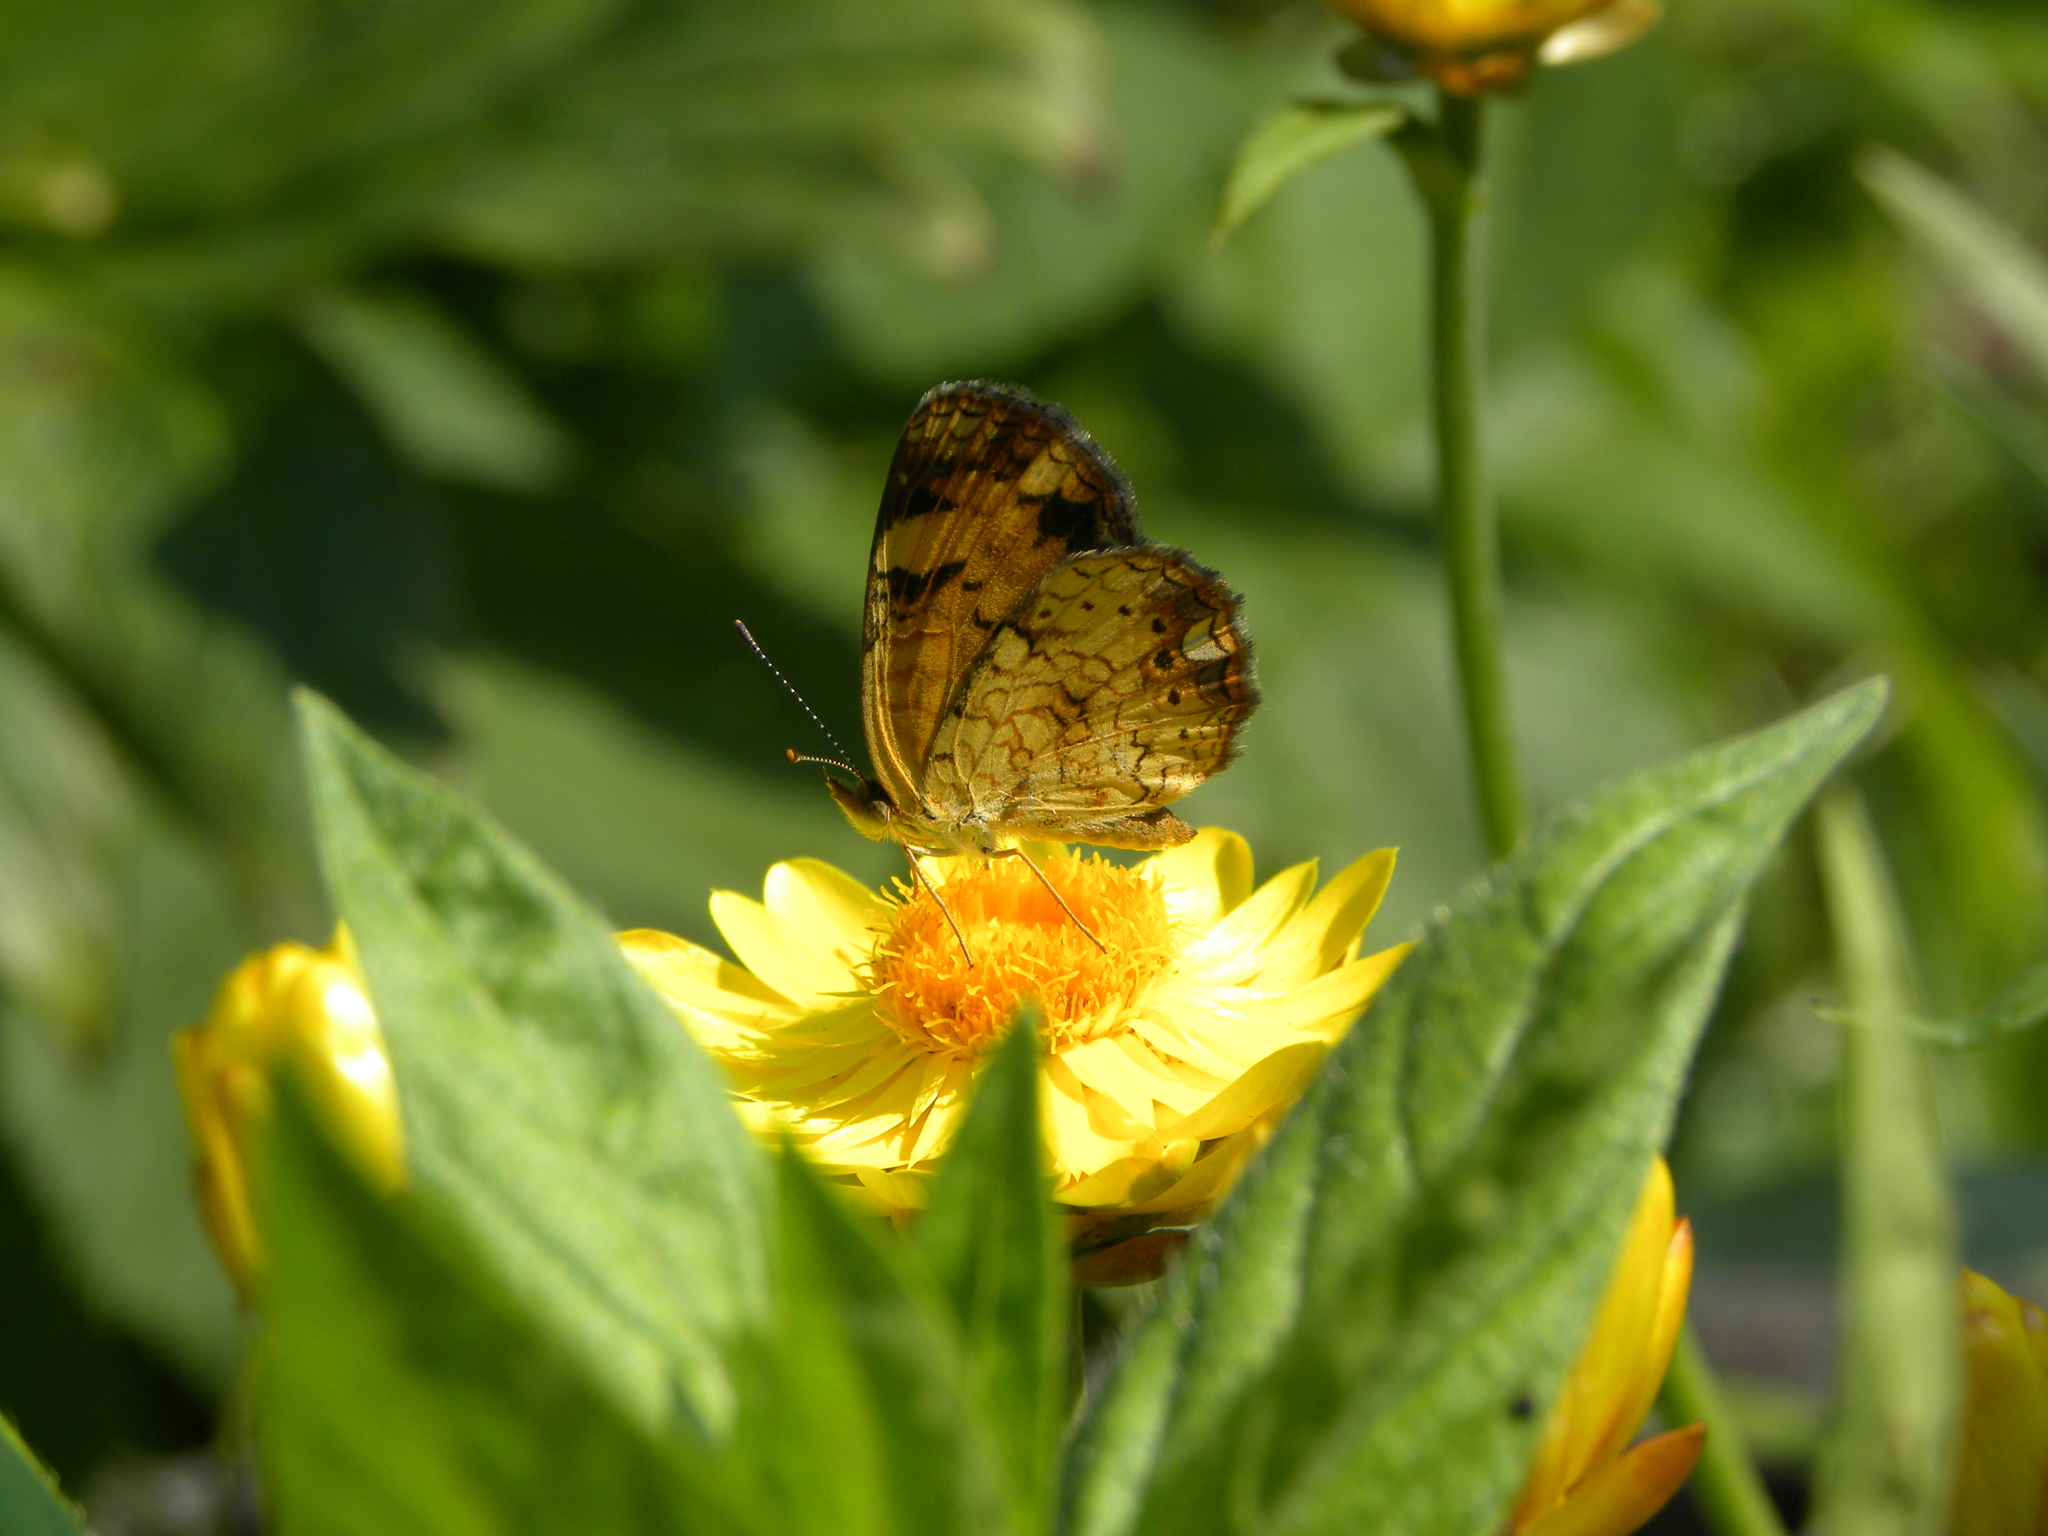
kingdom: Animalia
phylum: Arthropoda
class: Insecta
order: Lepidoptera
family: Nymphalidae
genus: Phyciodes
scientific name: Phyciodes tharos
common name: Pearl crescent
